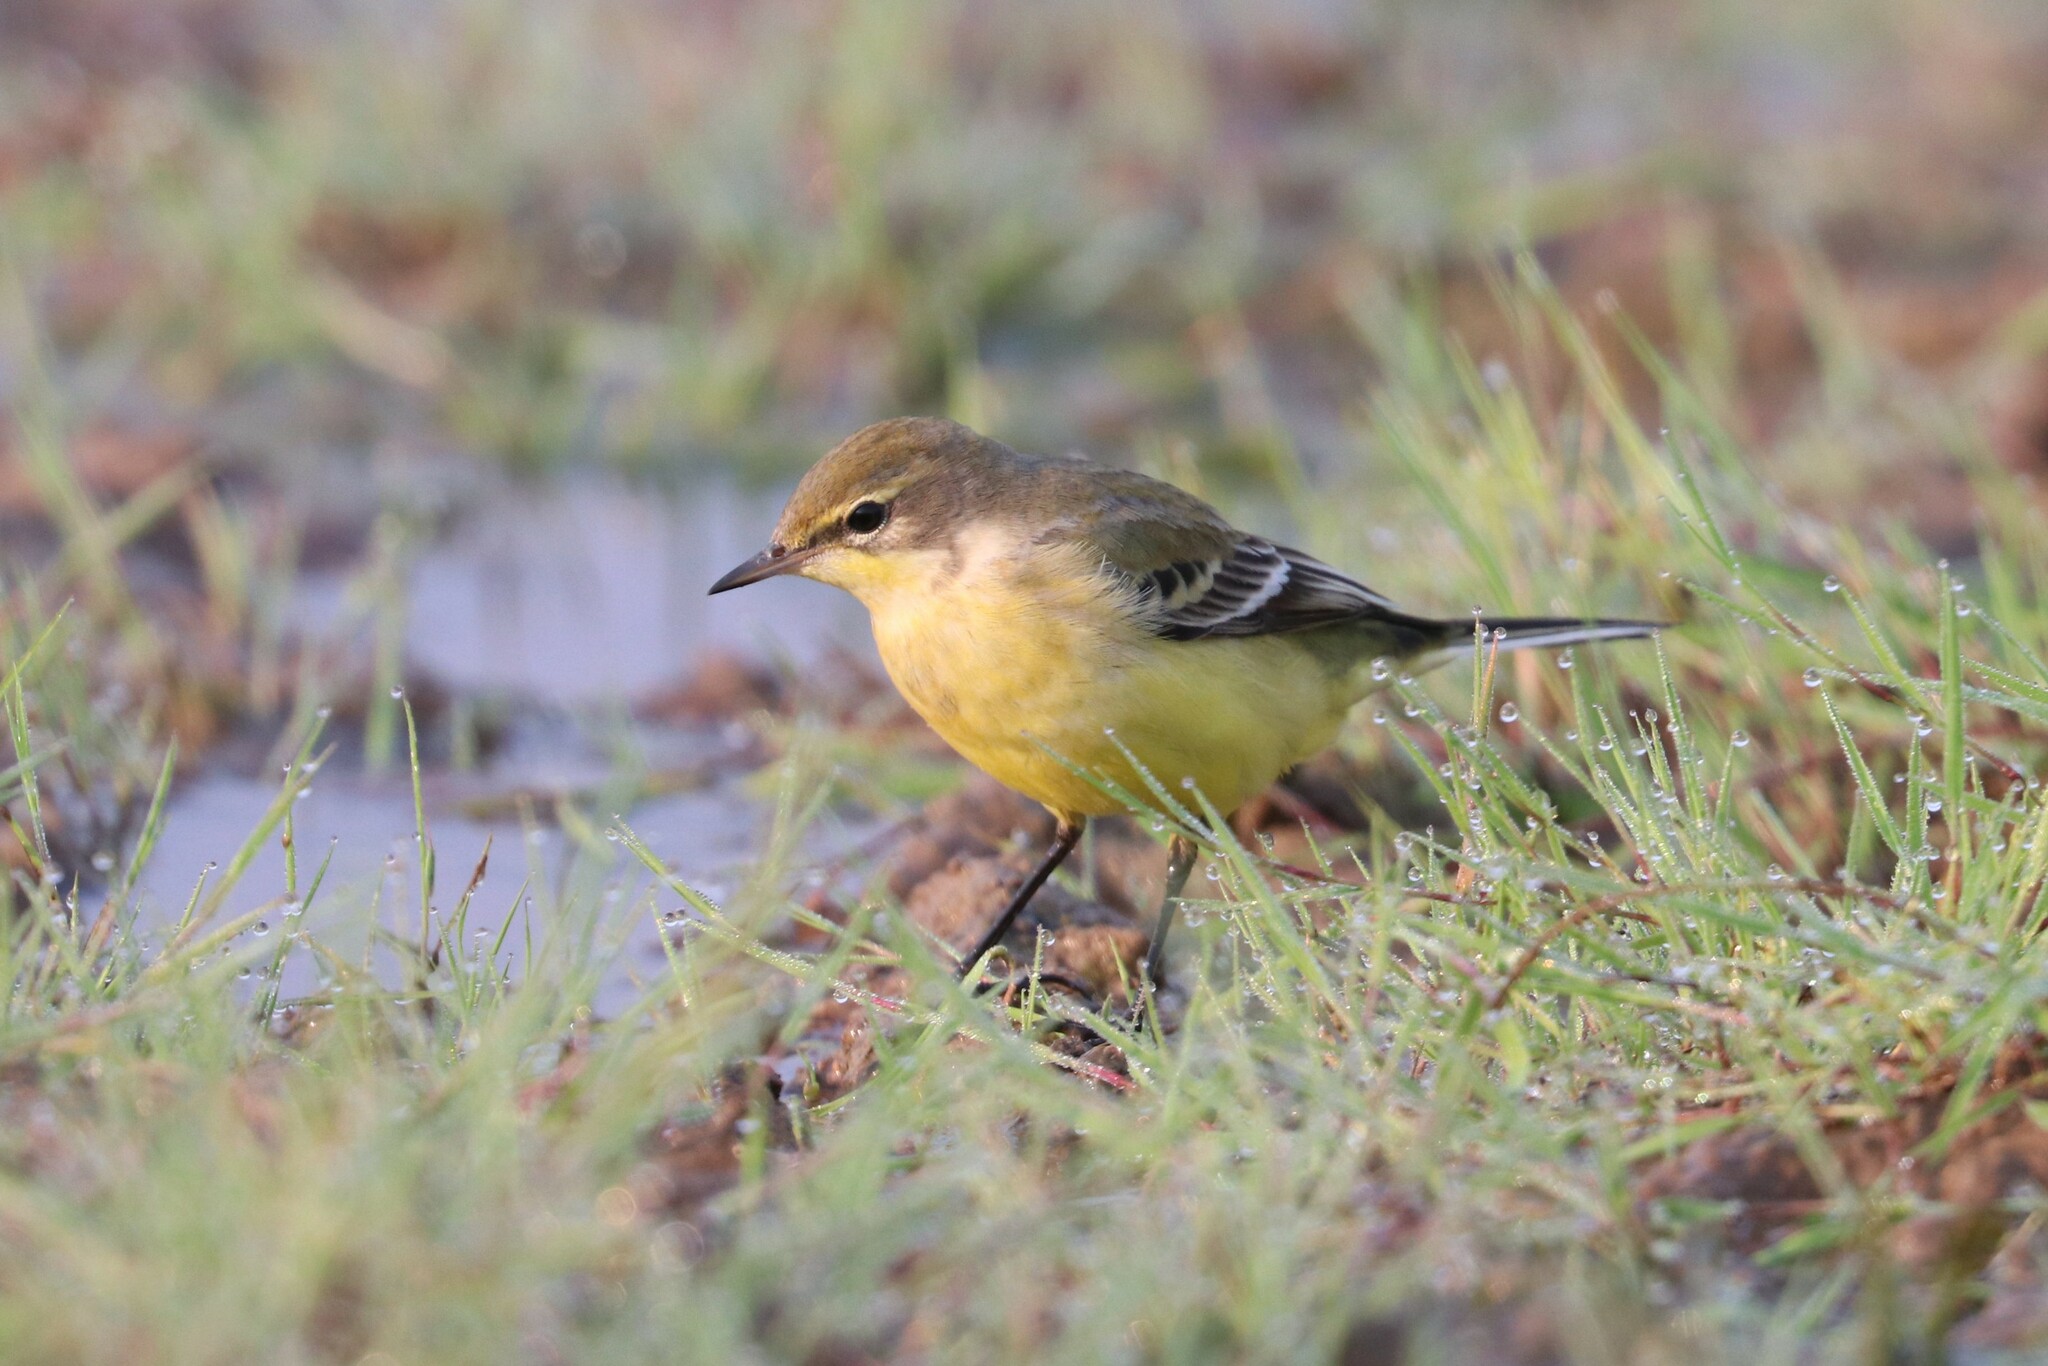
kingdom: Animalia
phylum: Chordata
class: Aves
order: Passeriformes
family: Motacillidae
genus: Motacilla
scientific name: Motacilla flava
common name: Western yellow wagtail
